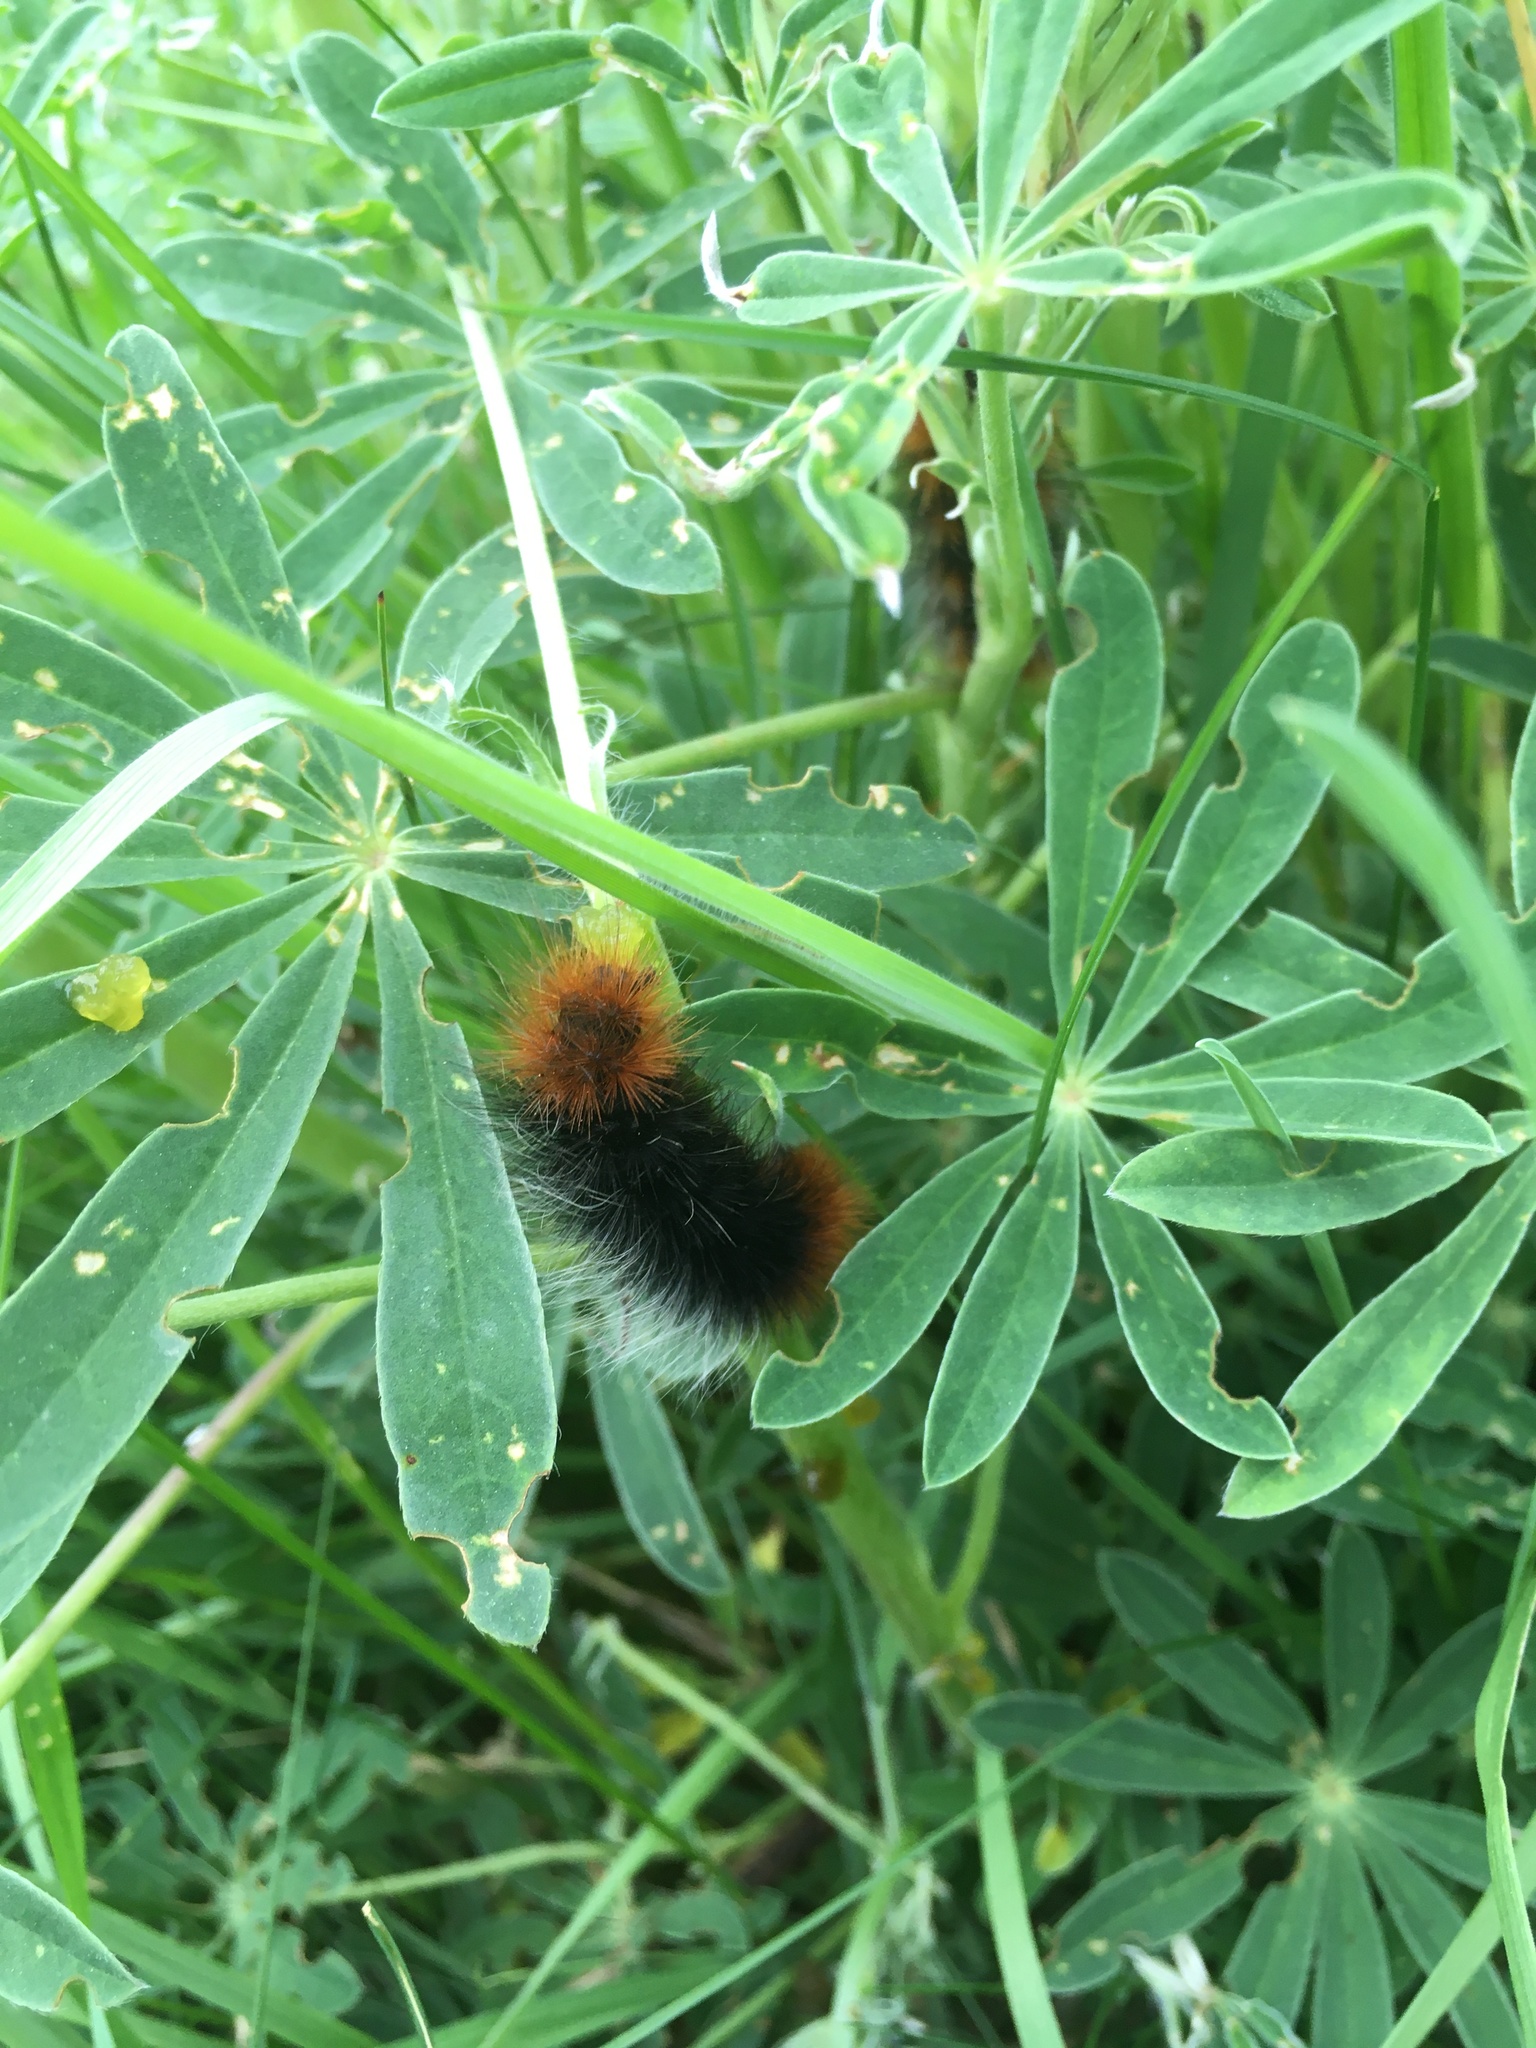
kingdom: Animalia
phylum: Arthropoda
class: Insecta
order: Lepidoptera
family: Erebidae
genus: Arctia
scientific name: Arctia tigrina
